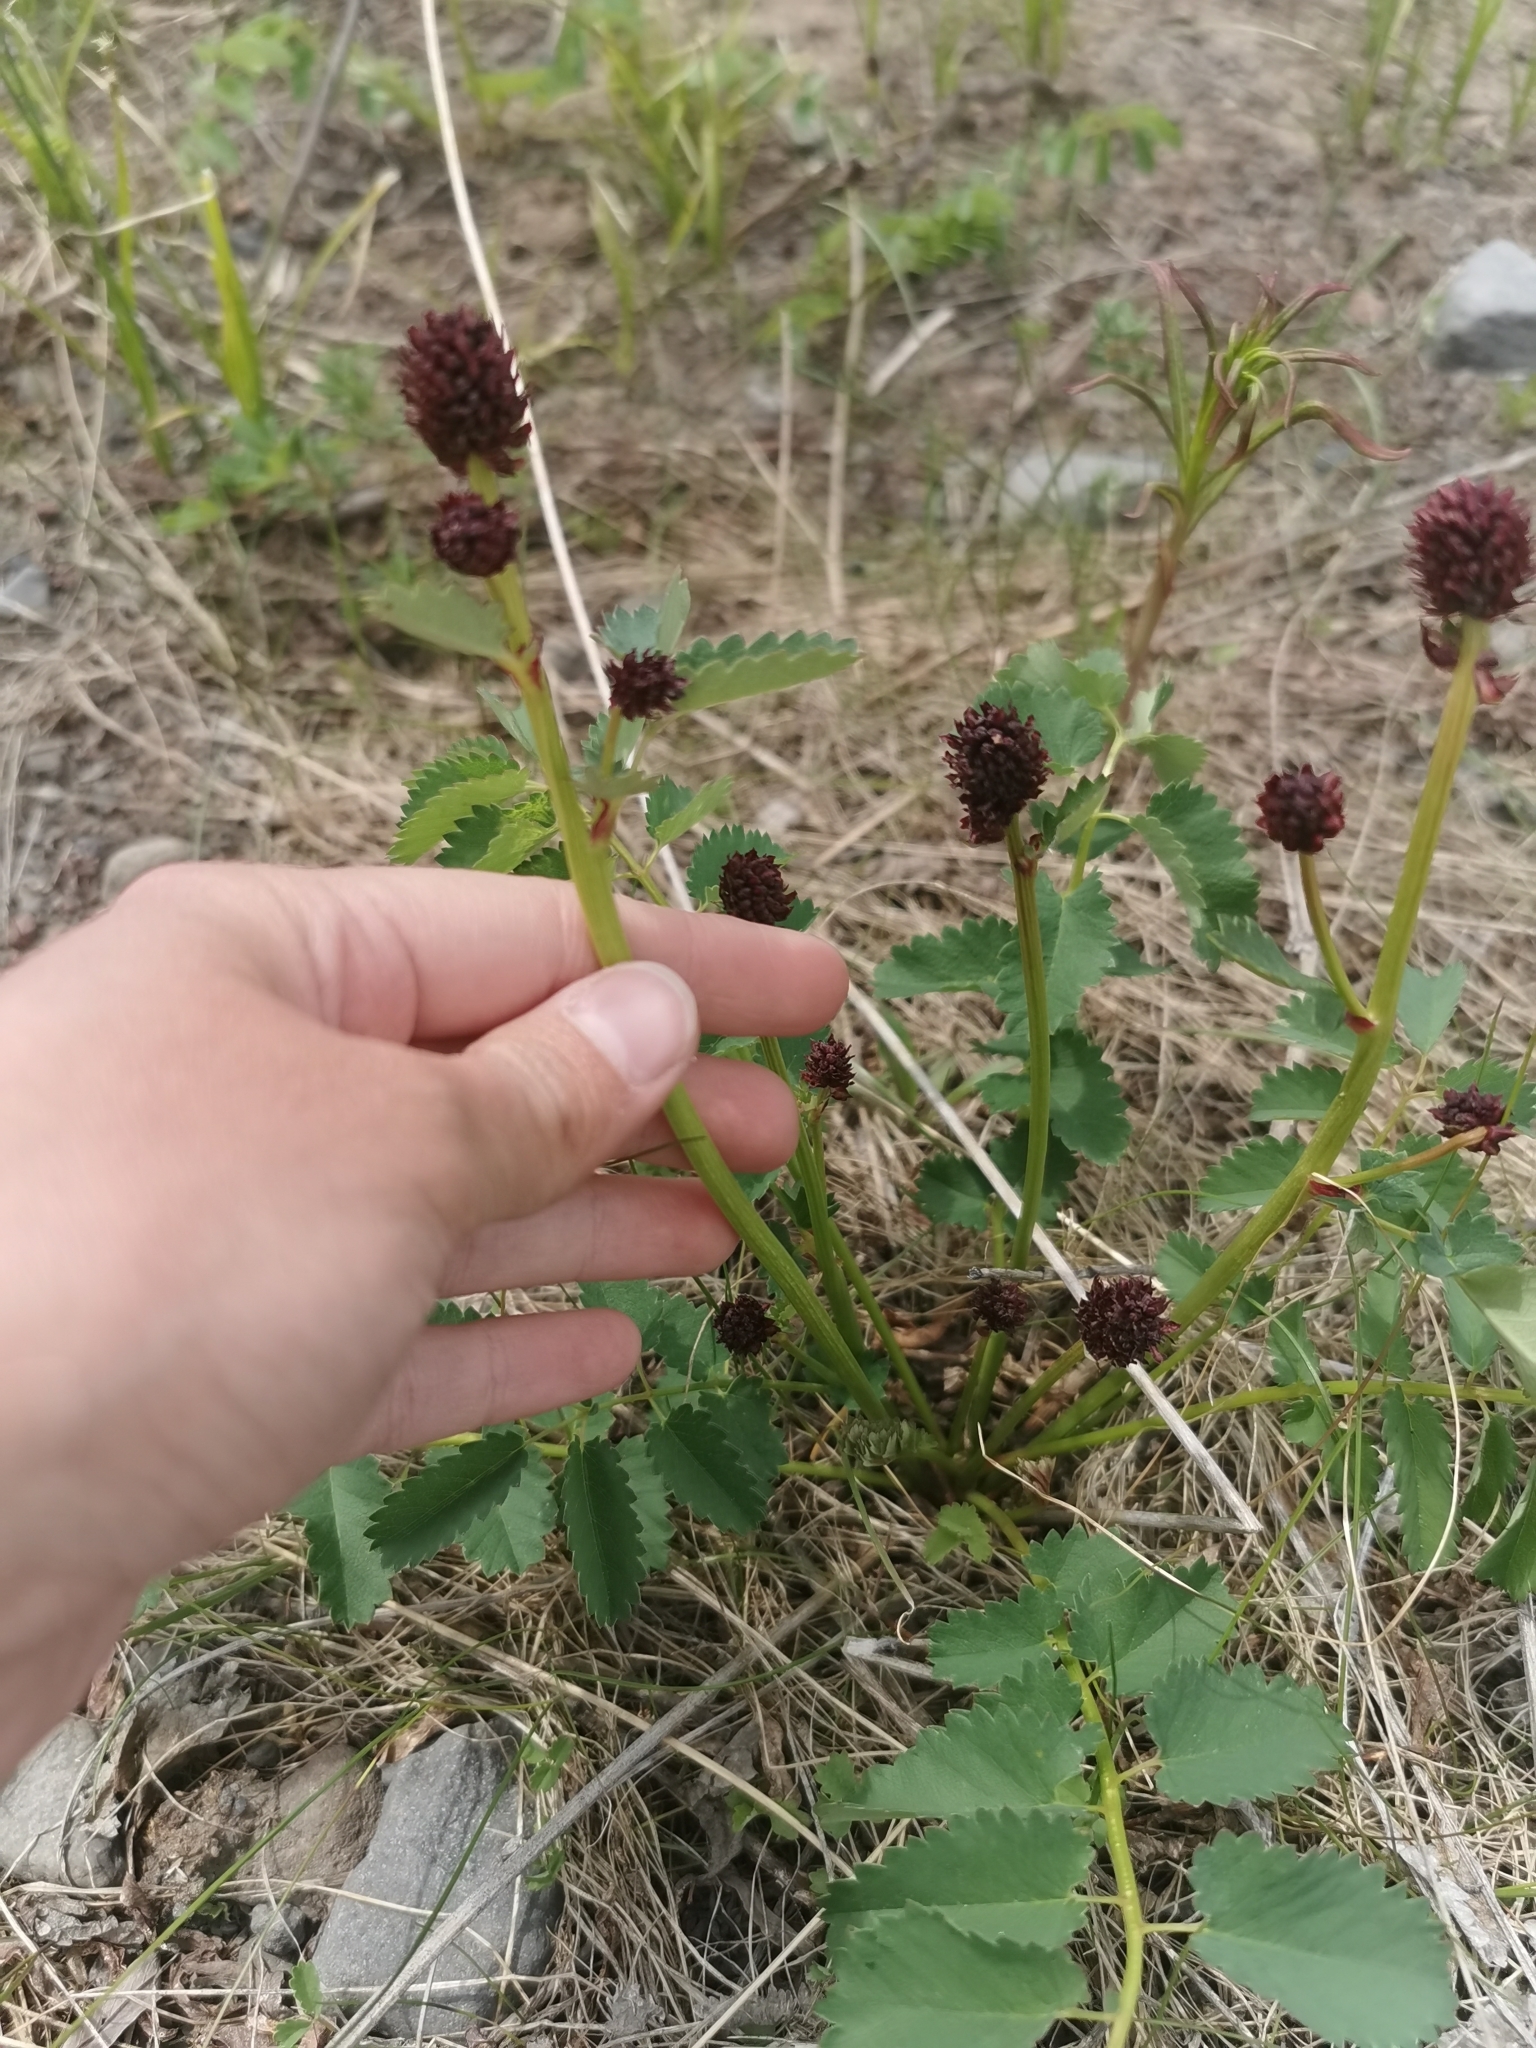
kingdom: Plantae
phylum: Tracheophyta
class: Magnoliopsida
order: Rosales
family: Rosaceae
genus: Sanguisorba
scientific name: Sanguisorba officinalis
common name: Great burnet
